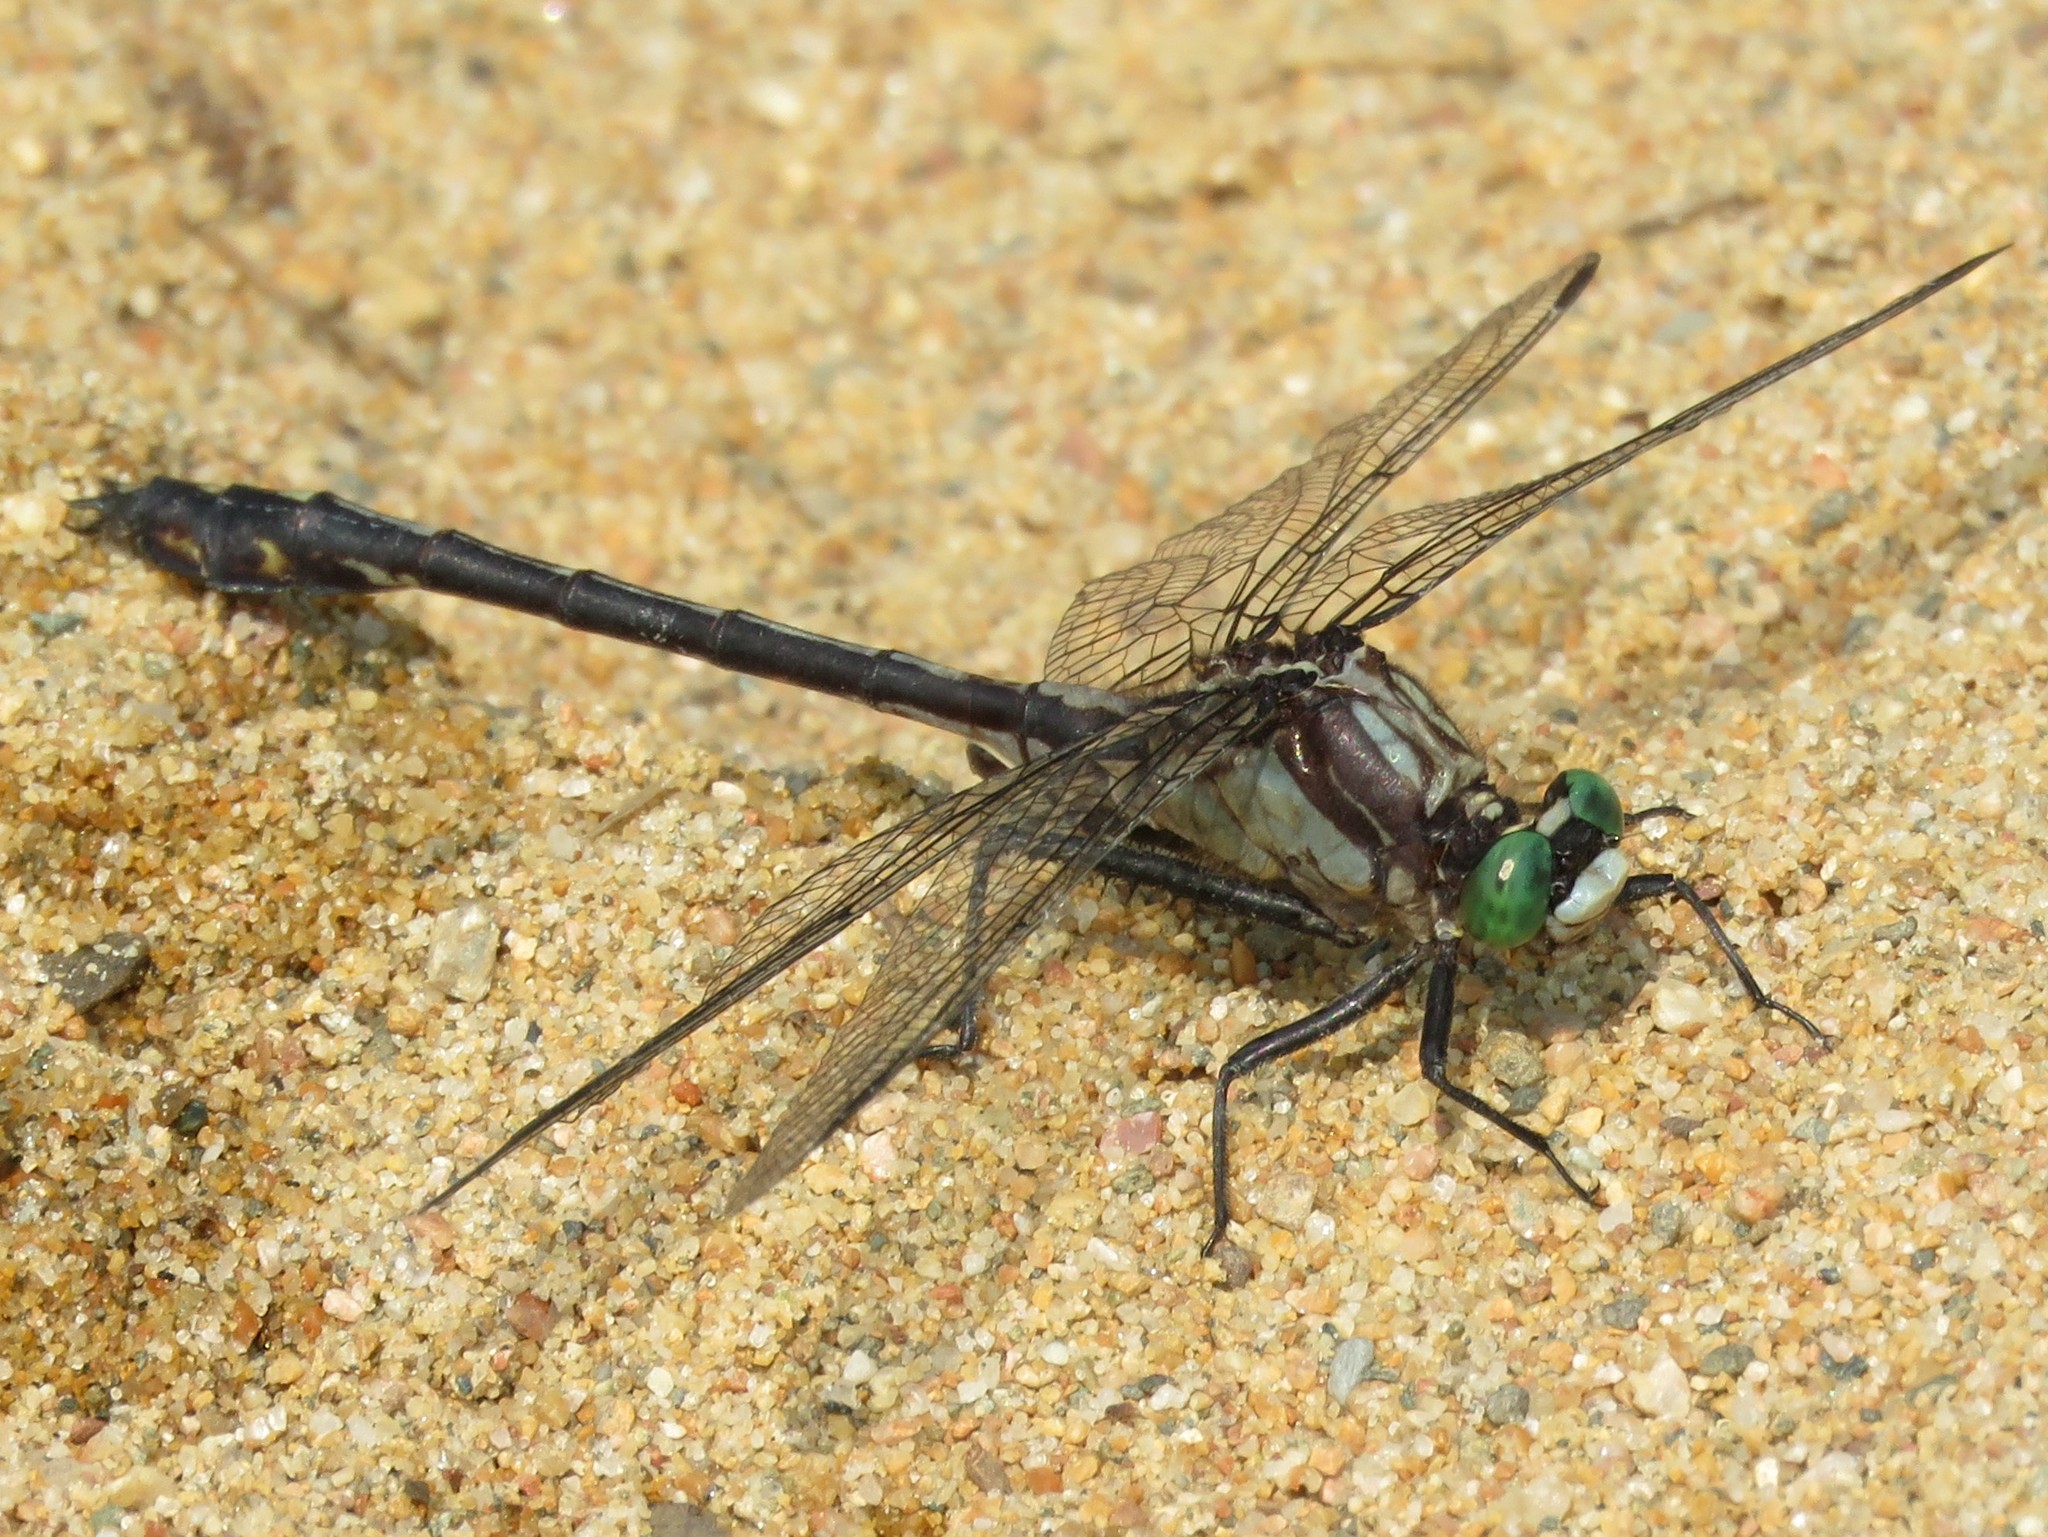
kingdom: Animalia
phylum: Arthropoda
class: Insecta
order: Odonata
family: Gomphidae
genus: Dromogomphus
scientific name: Dromogomphus spinosus
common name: Black-shouldered spinyleg
